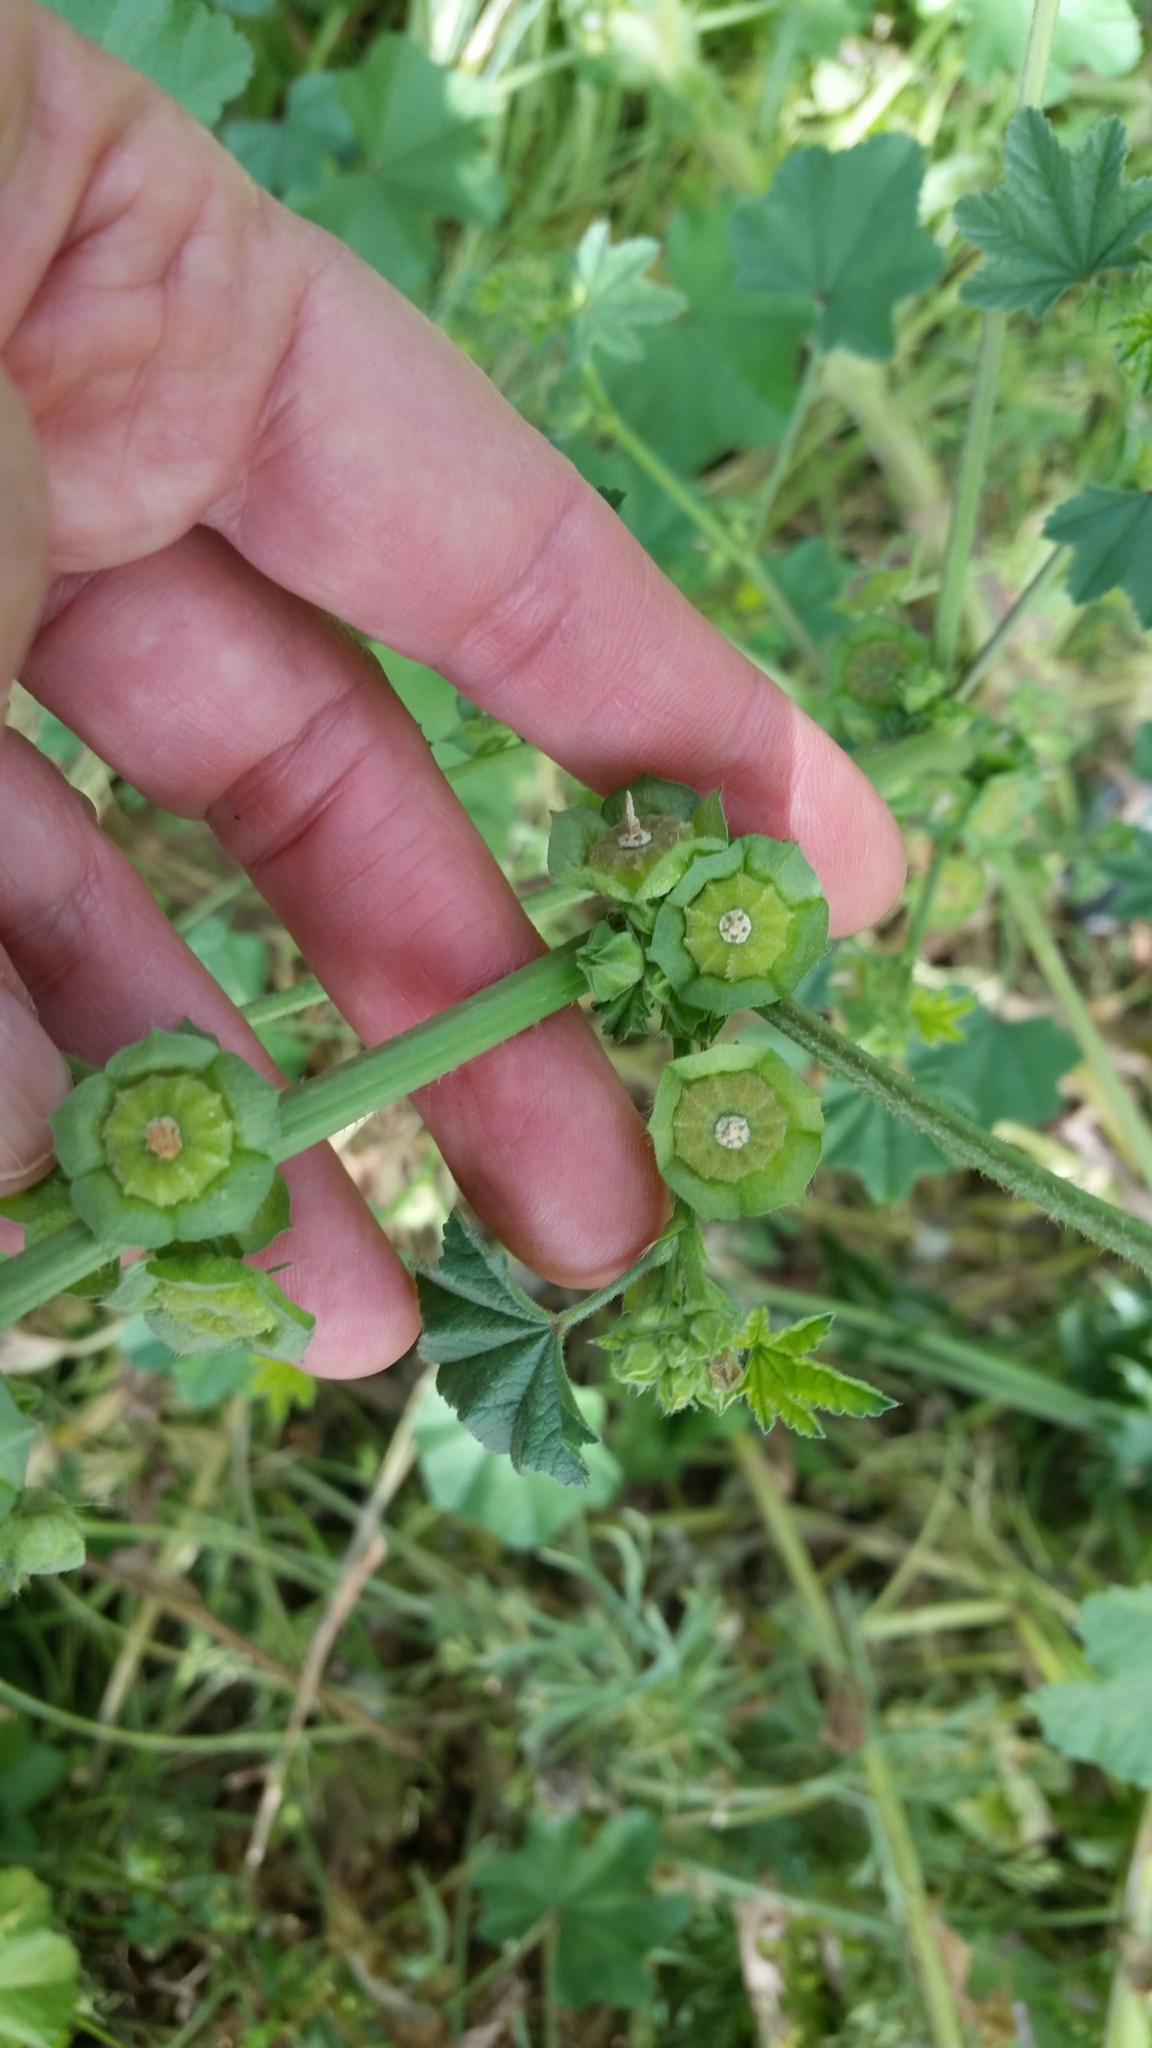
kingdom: Plantae
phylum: Tracheophyta
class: Magnoliopsida
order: Malvales
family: Malvaceae
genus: Malva
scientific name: Malva parviflora
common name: Least mallow
